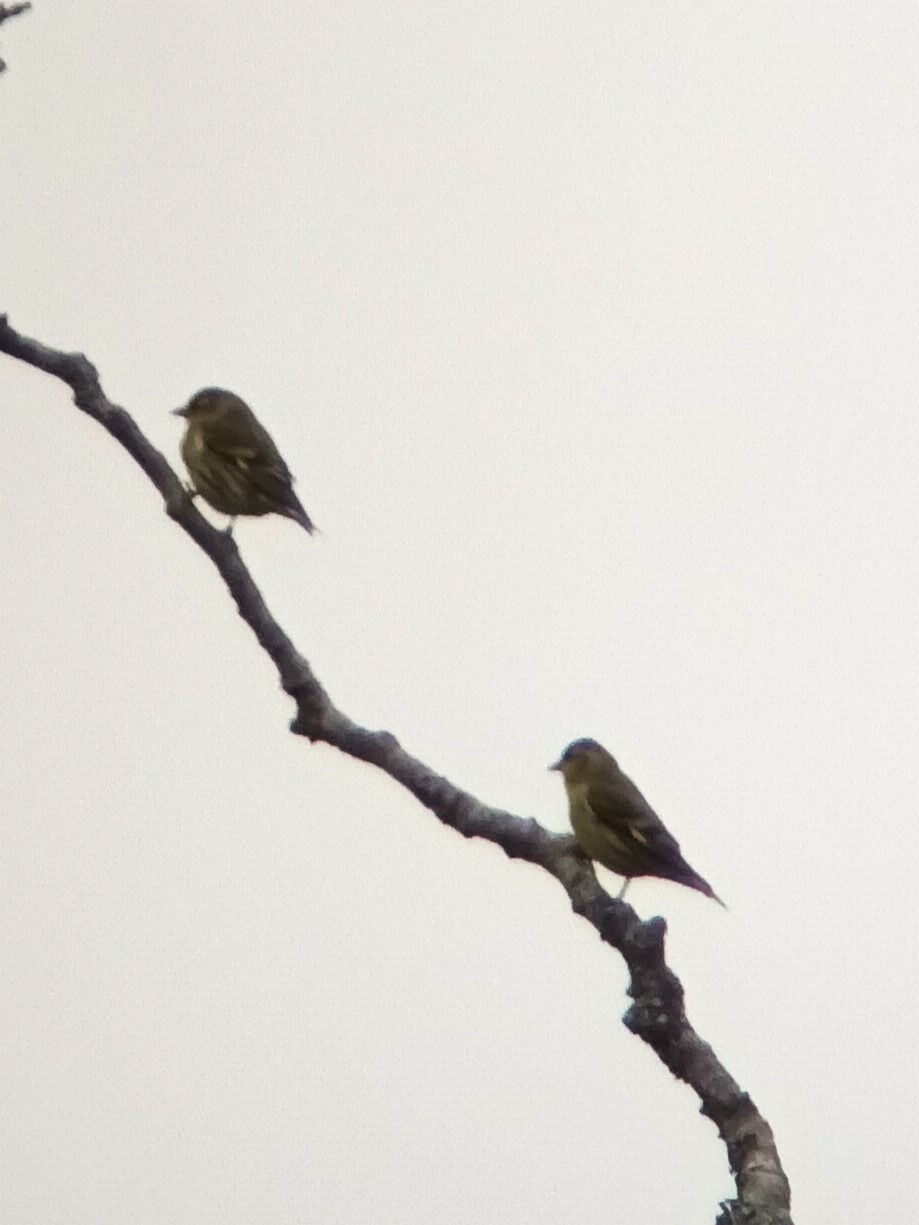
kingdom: Animalia
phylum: Chordata
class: Aves
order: Passeriformes
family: Fringillidae
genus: Spinus
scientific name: Spinus spinus
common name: Eurasian siskin
